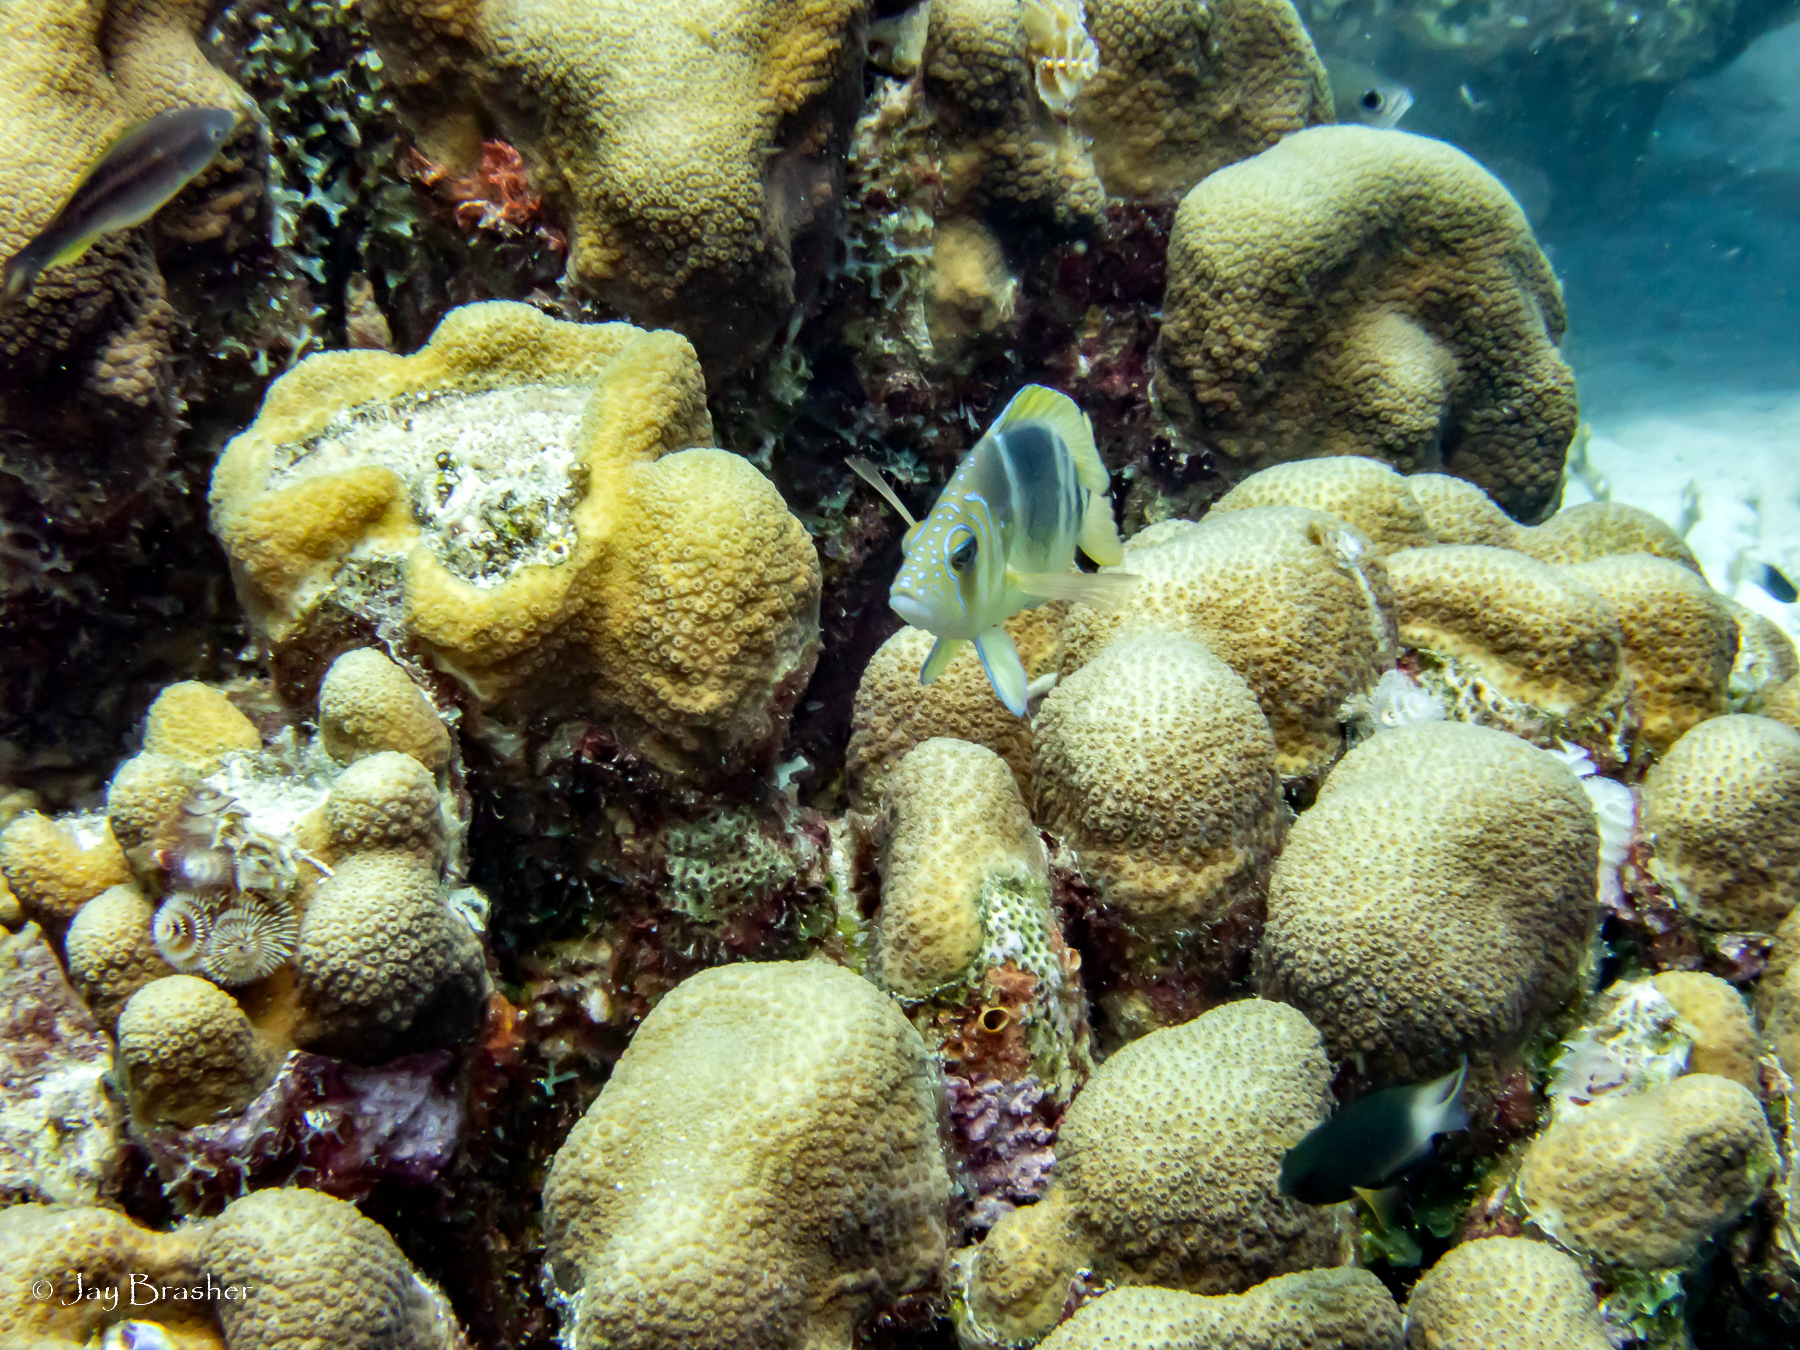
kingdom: Animalia
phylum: Cnidaria
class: Anthozoa
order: Scleractinia
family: Merulinidae
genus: Orbicella
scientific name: Orbicella annularis
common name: Boulder star coral
